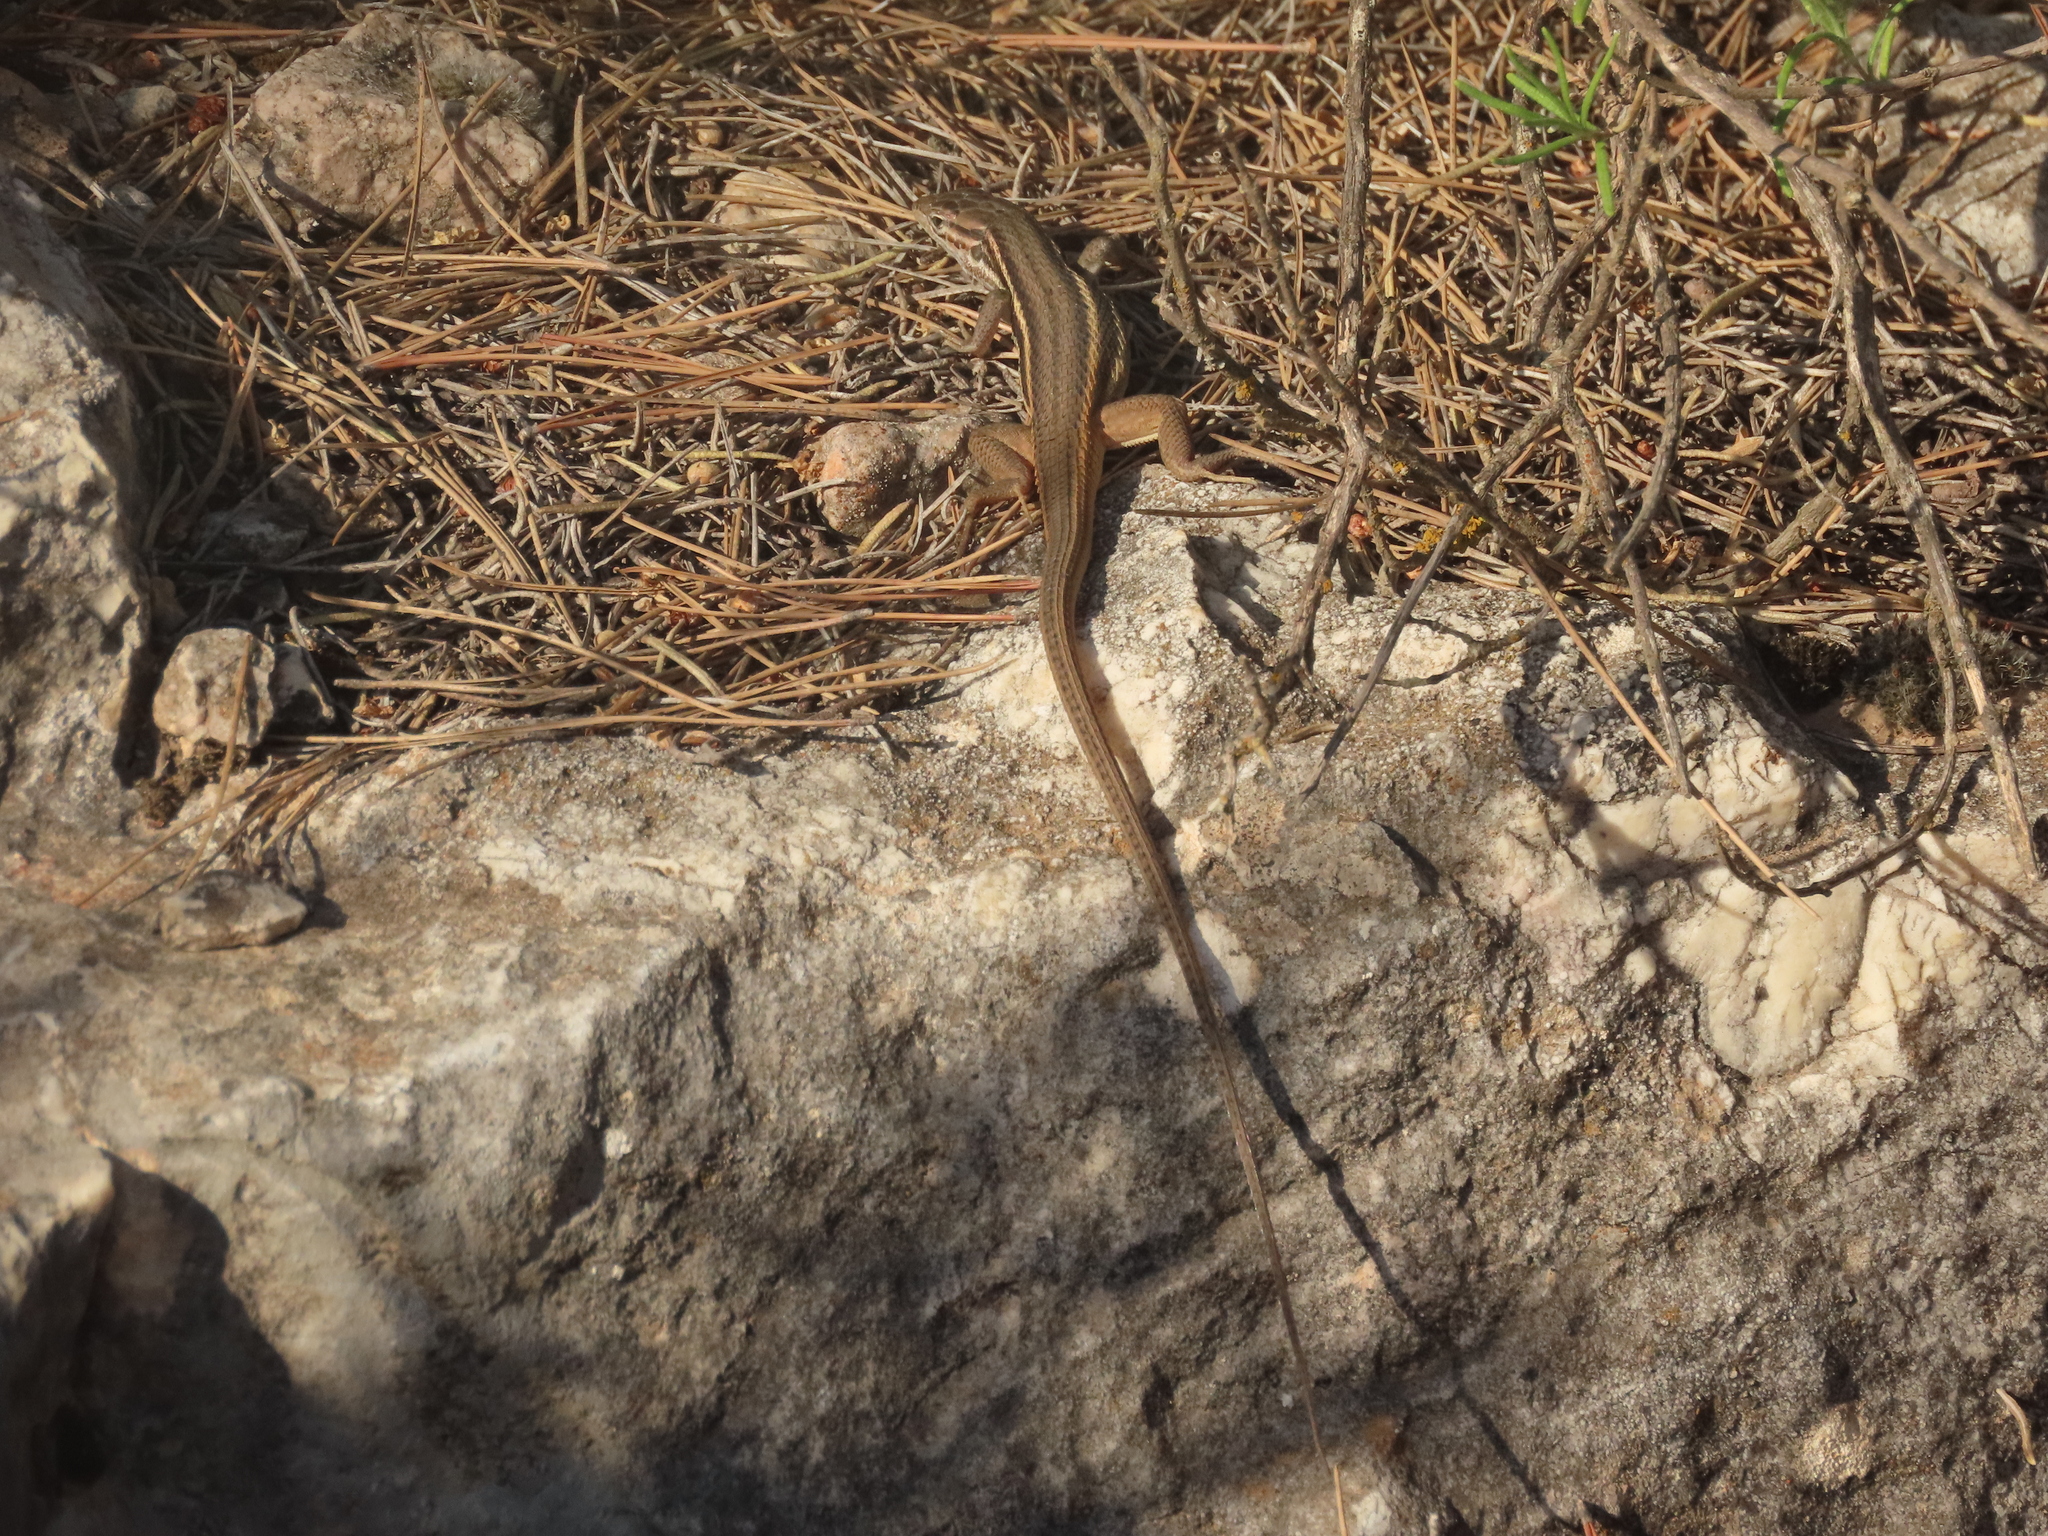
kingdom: Animalia
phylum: Chordata
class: Squamata
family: Lacertidae
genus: Psammodromus
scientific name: Psammodromus algirus
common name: Algerian psammodromus
